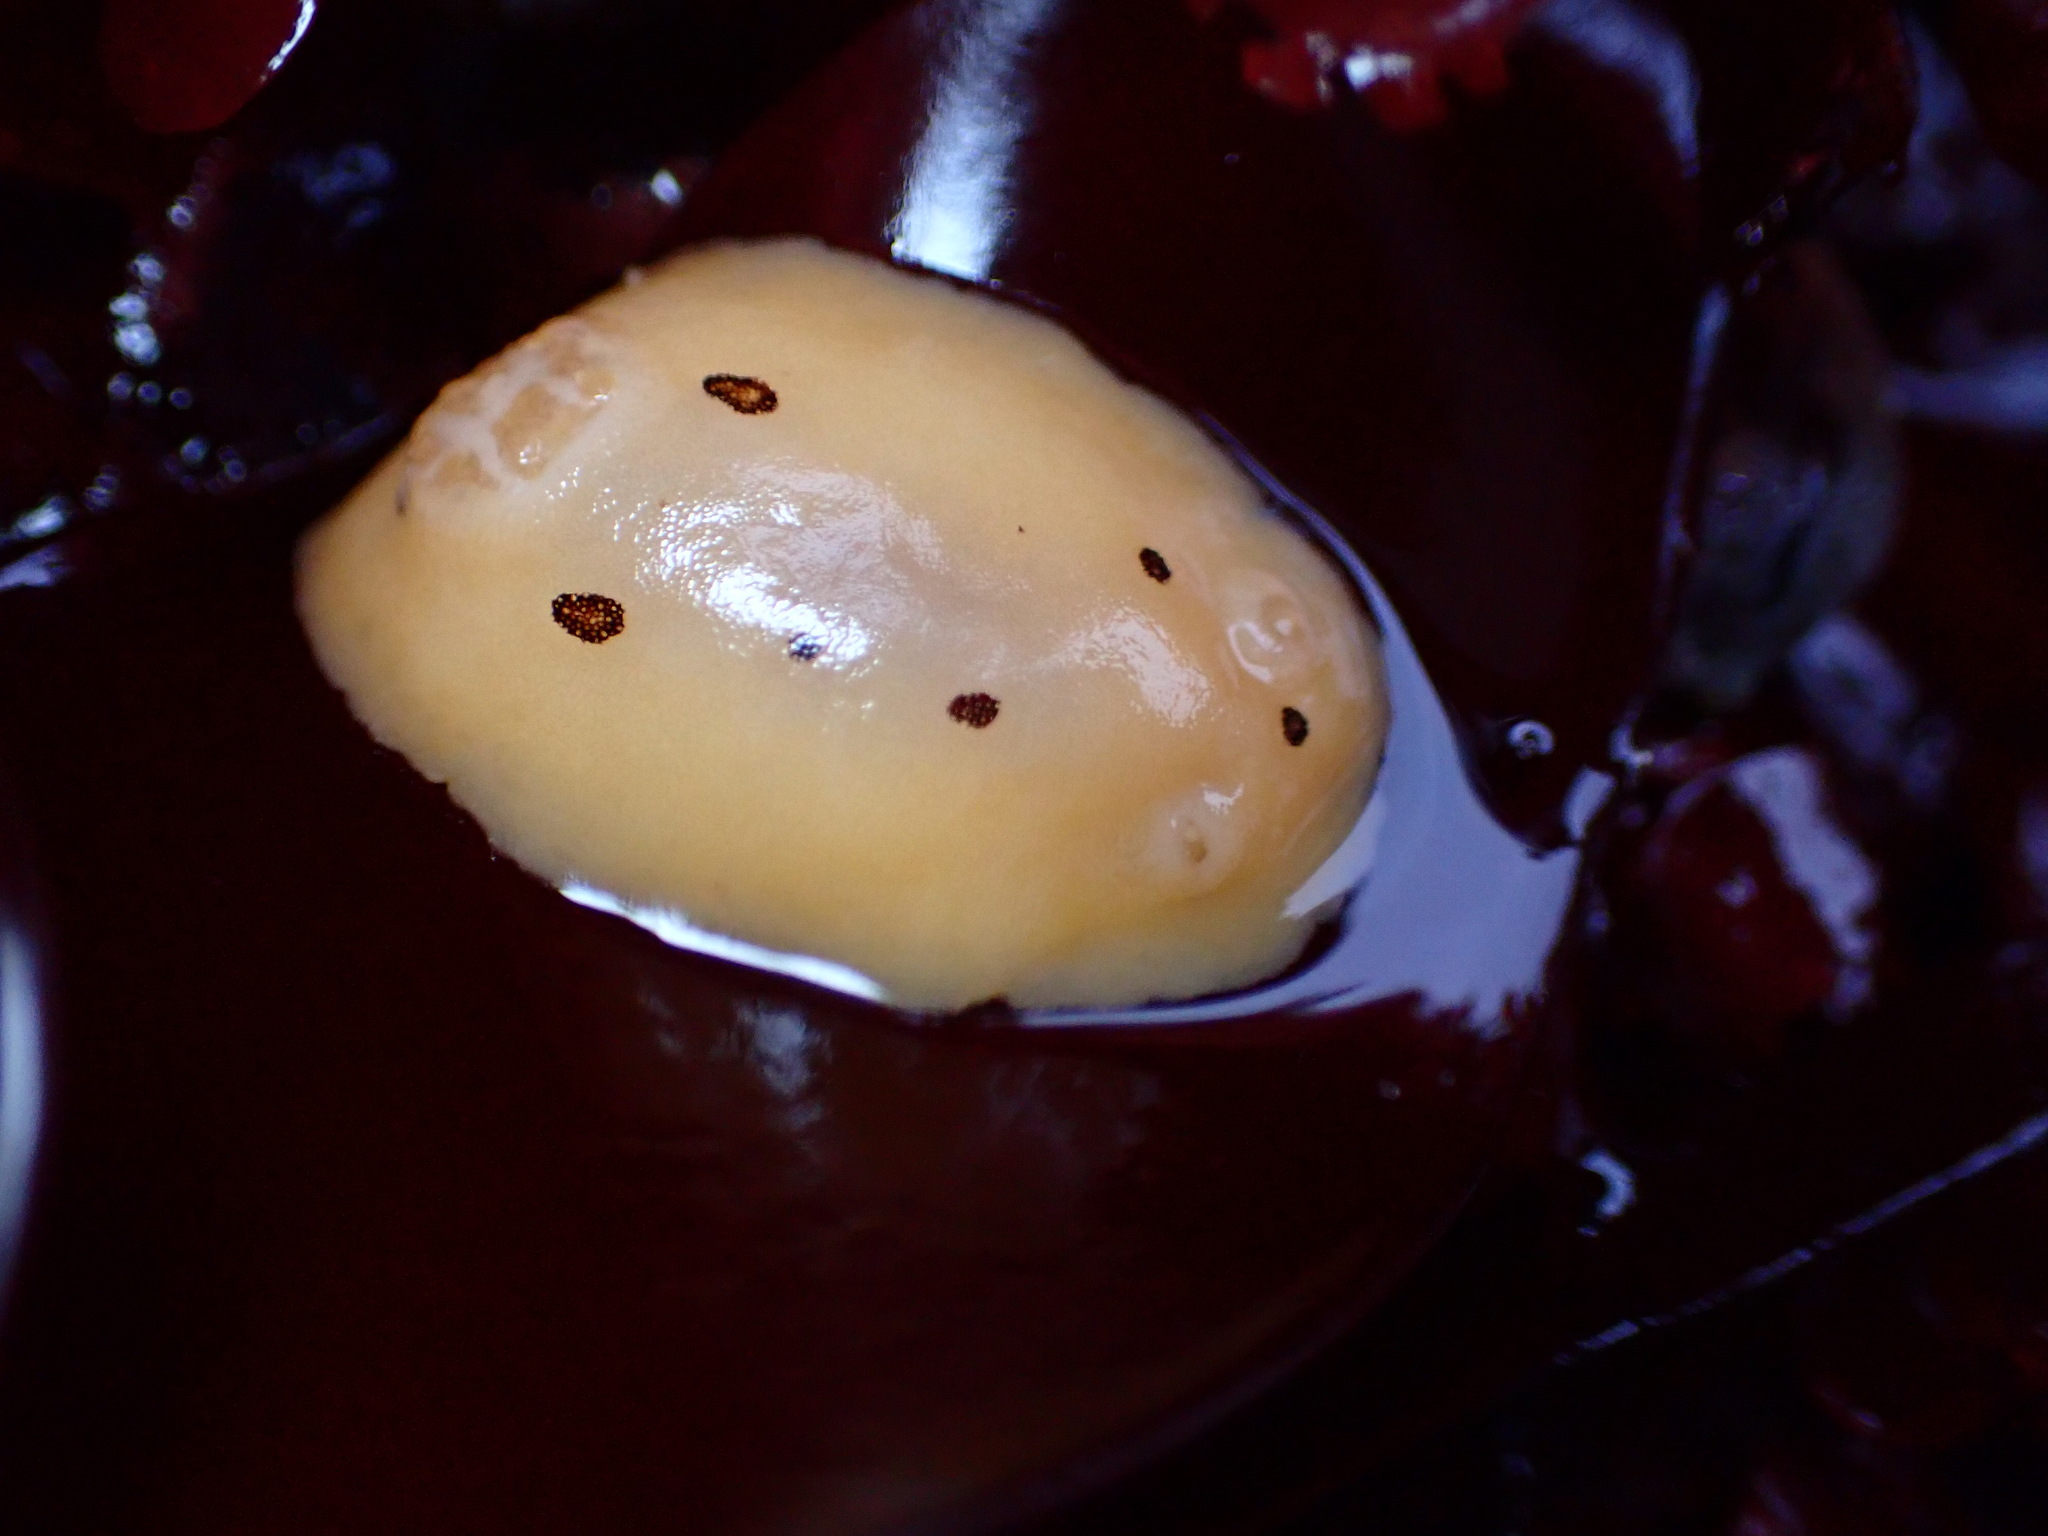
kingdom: Animalia
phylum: Mollusca
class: Gastropoda
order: Nudibranchia
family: Discodorididae
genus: Diaulula
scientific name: Diaulula sandiegensis
